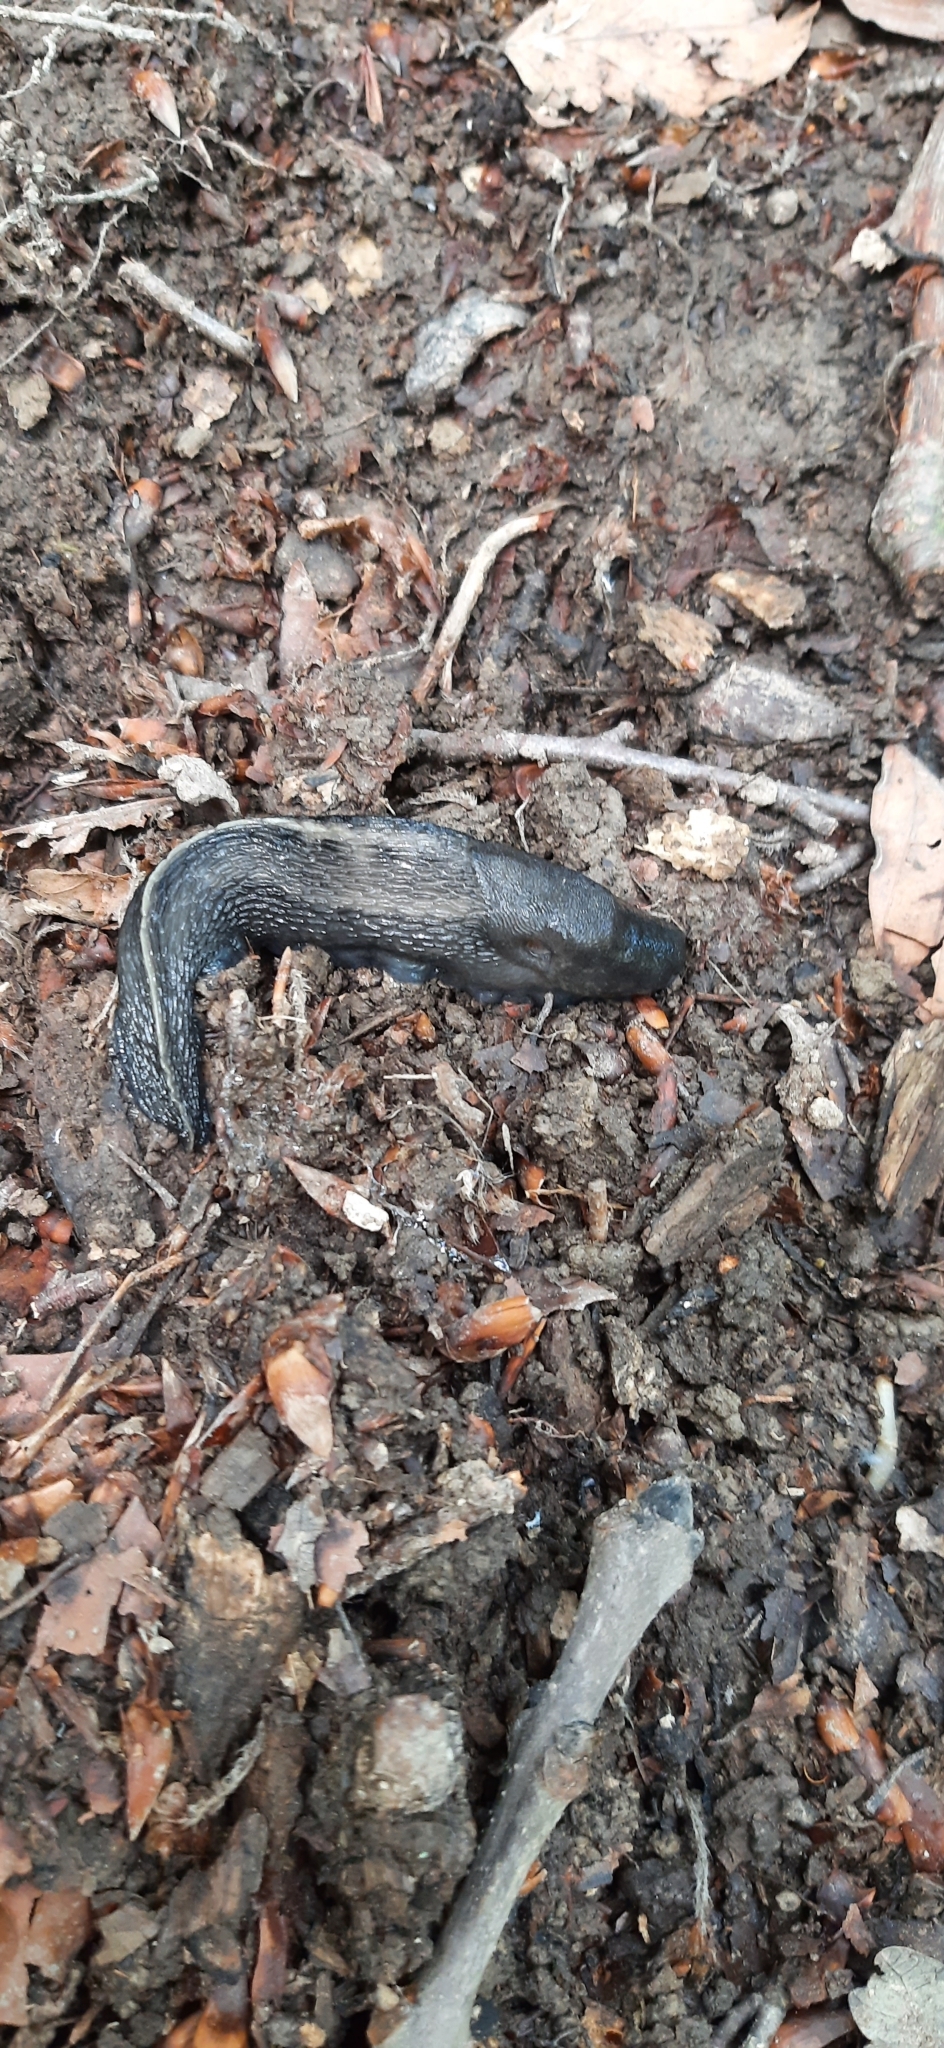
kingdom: Animalia
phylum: Mollusca
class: Gastropoda
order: Stylommatophora
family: Limacidae
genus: Limax
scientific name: Limax cinereoniger
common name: Ash-black slug
